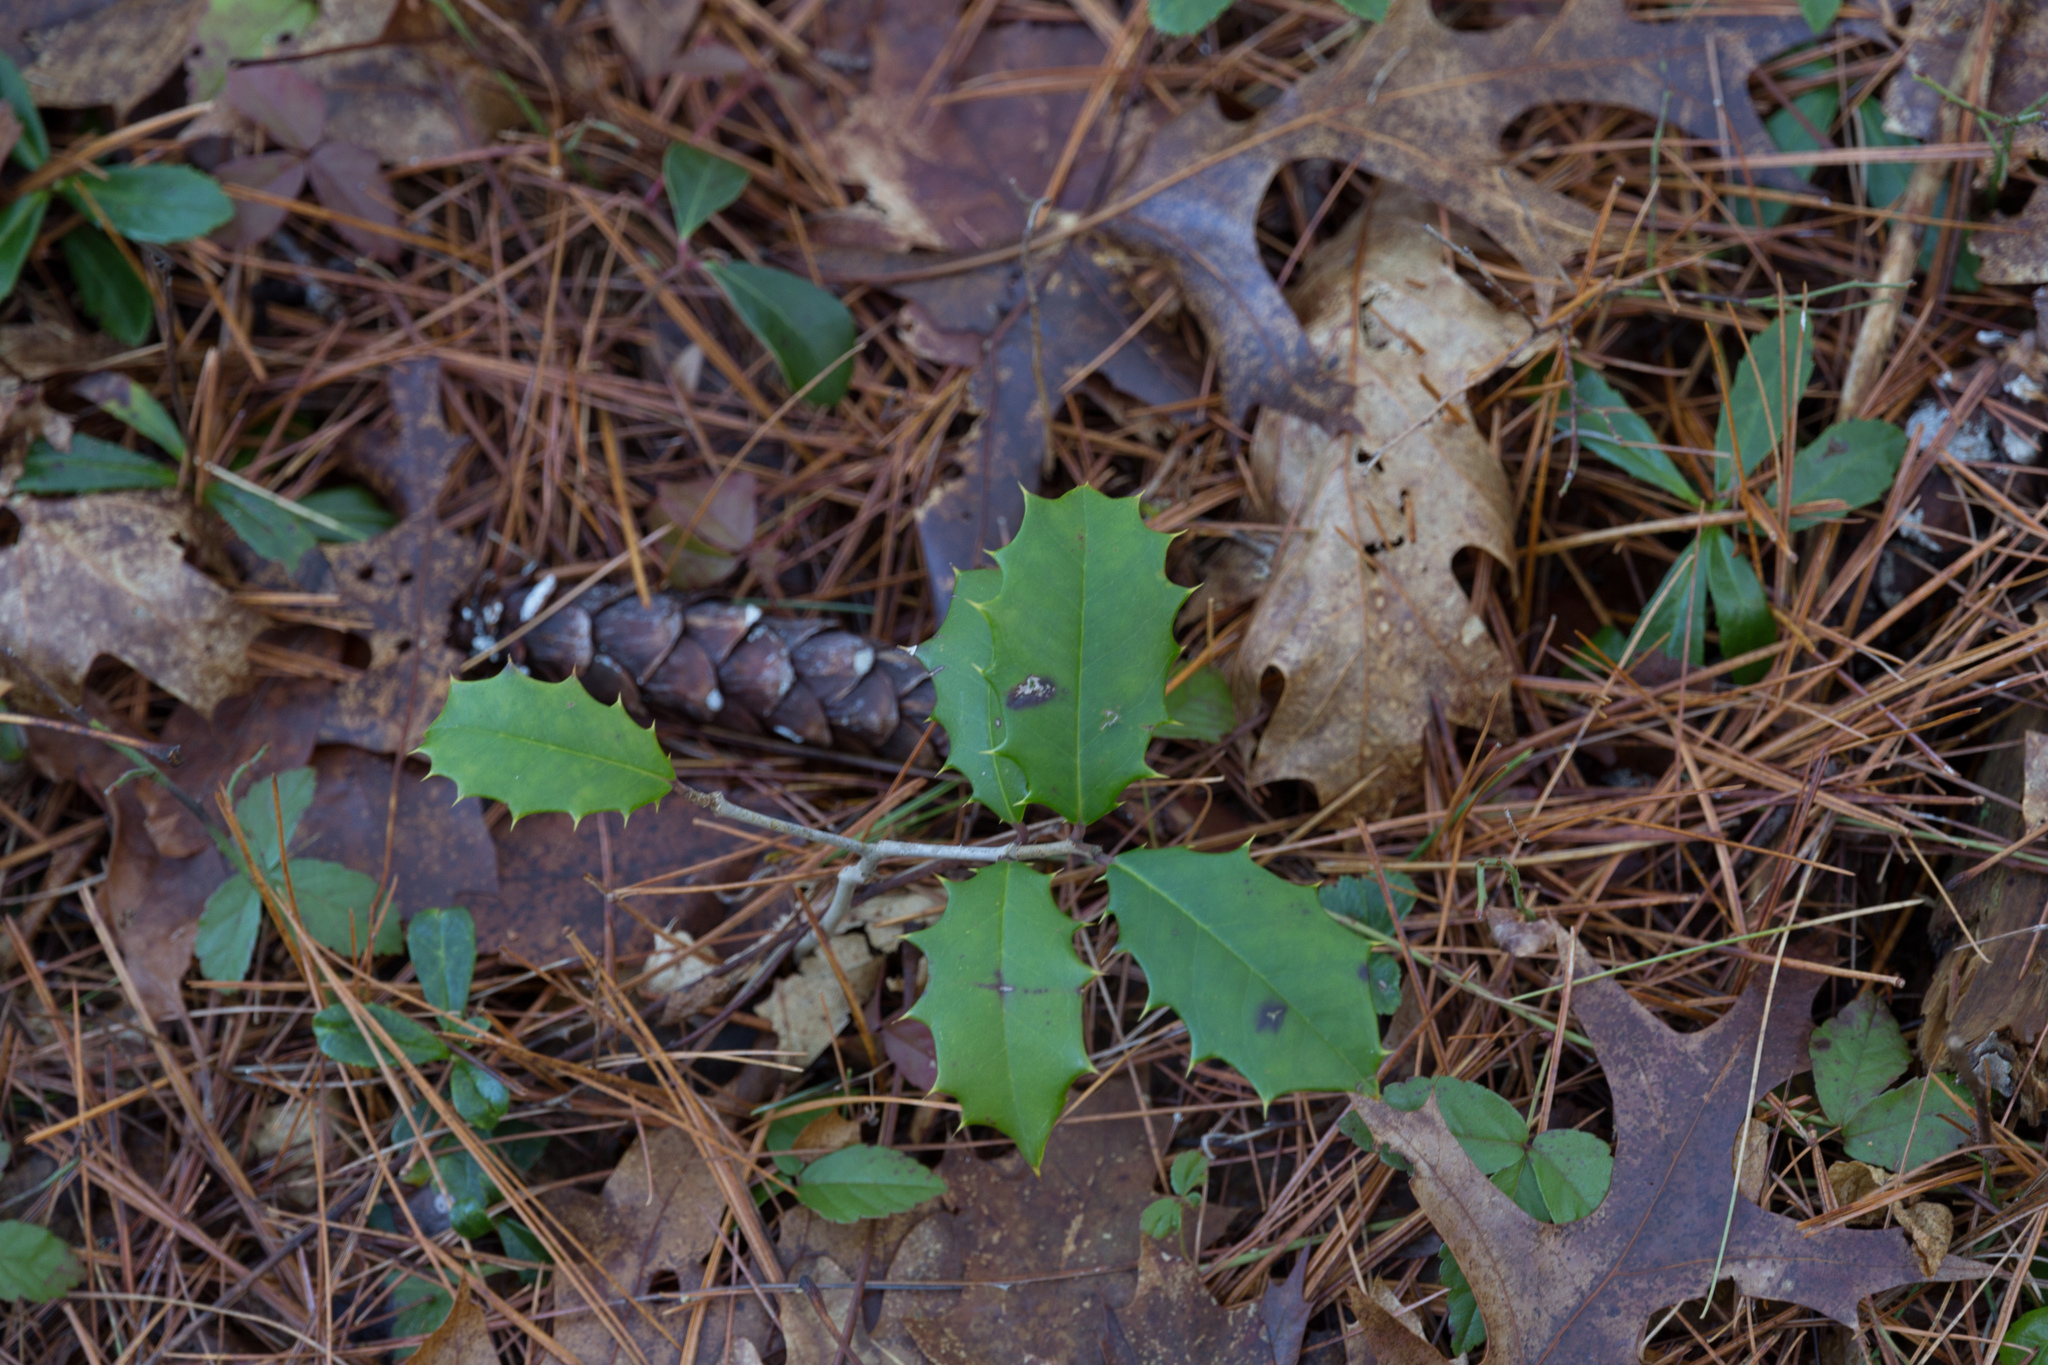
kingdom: Plantae
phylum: Tracheophyta
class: Magnoliopsida
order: Aquifoliales
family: Aquifoliaceae
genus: Ilex
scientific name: Ilex opaca
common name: American holly
